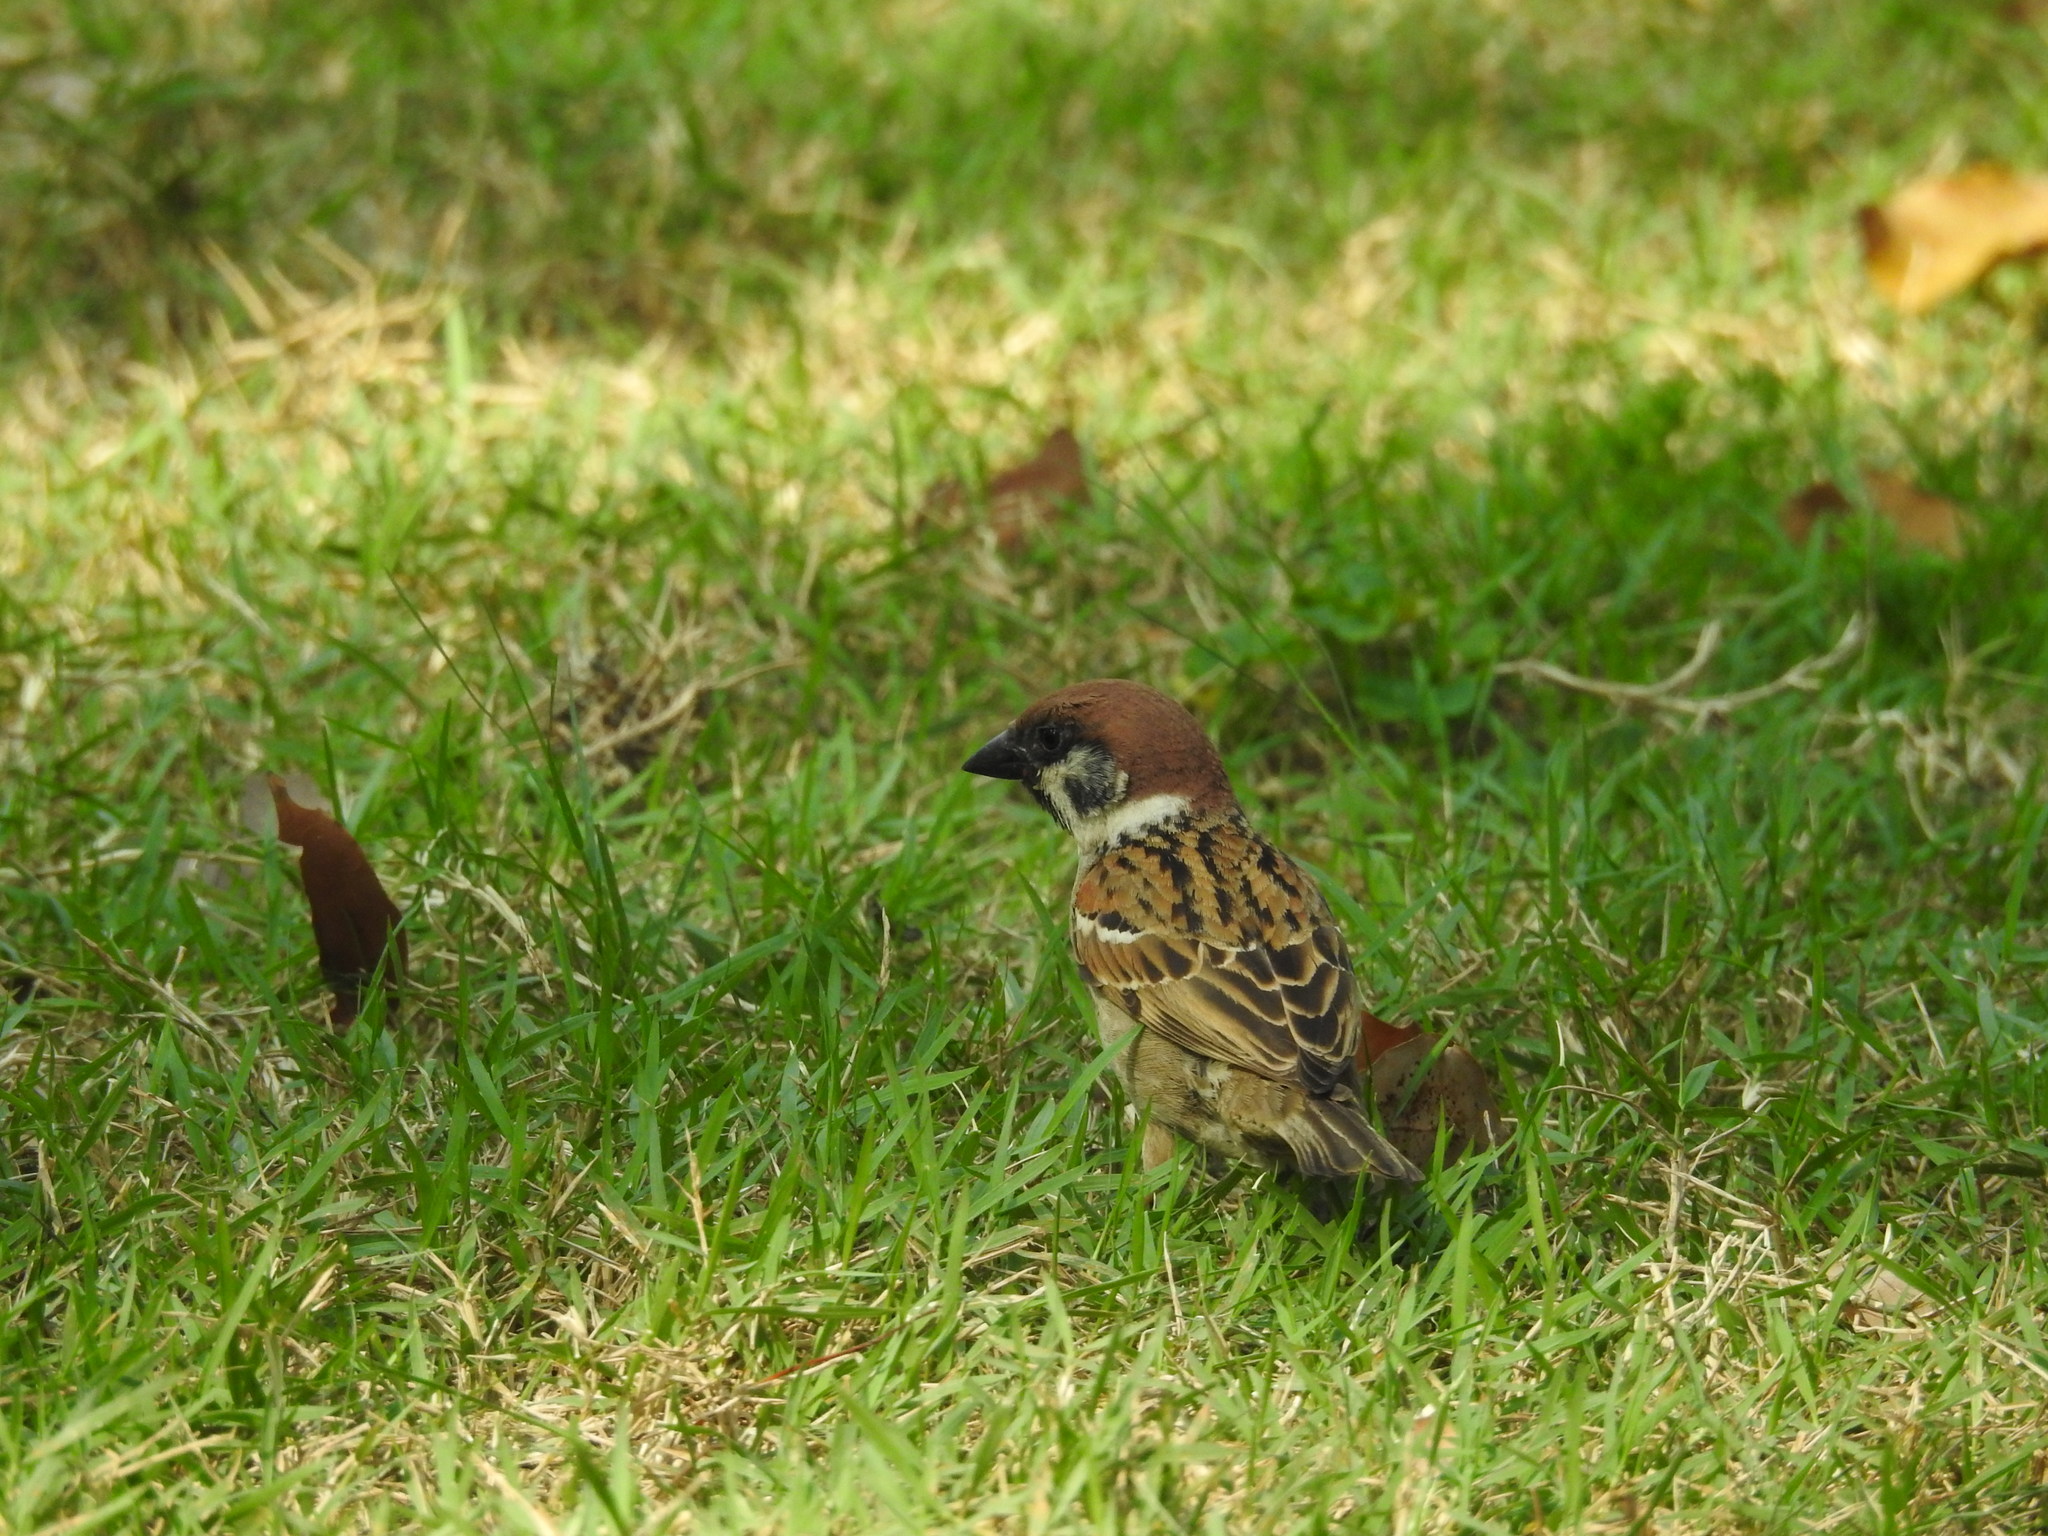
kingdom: Animalia
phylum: Chordata
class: Aves
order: Passeriformes
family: Passeridae
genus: Passer
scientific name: Passer montanus
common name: Eurasian tree sparrow
